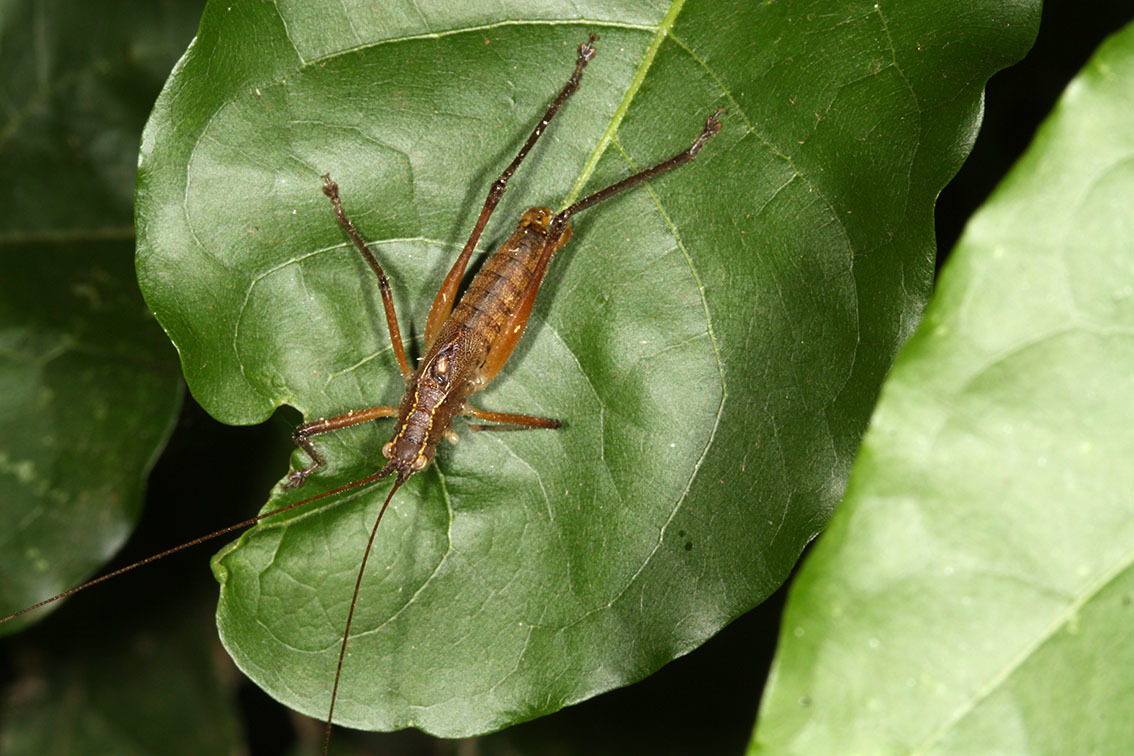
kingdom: Animalia
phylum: Arthropoda
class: Insecta
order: Orthoptera
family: Tettigoniidae
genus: Brachyteleutias
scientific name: Brachyteleutias bilineatus
